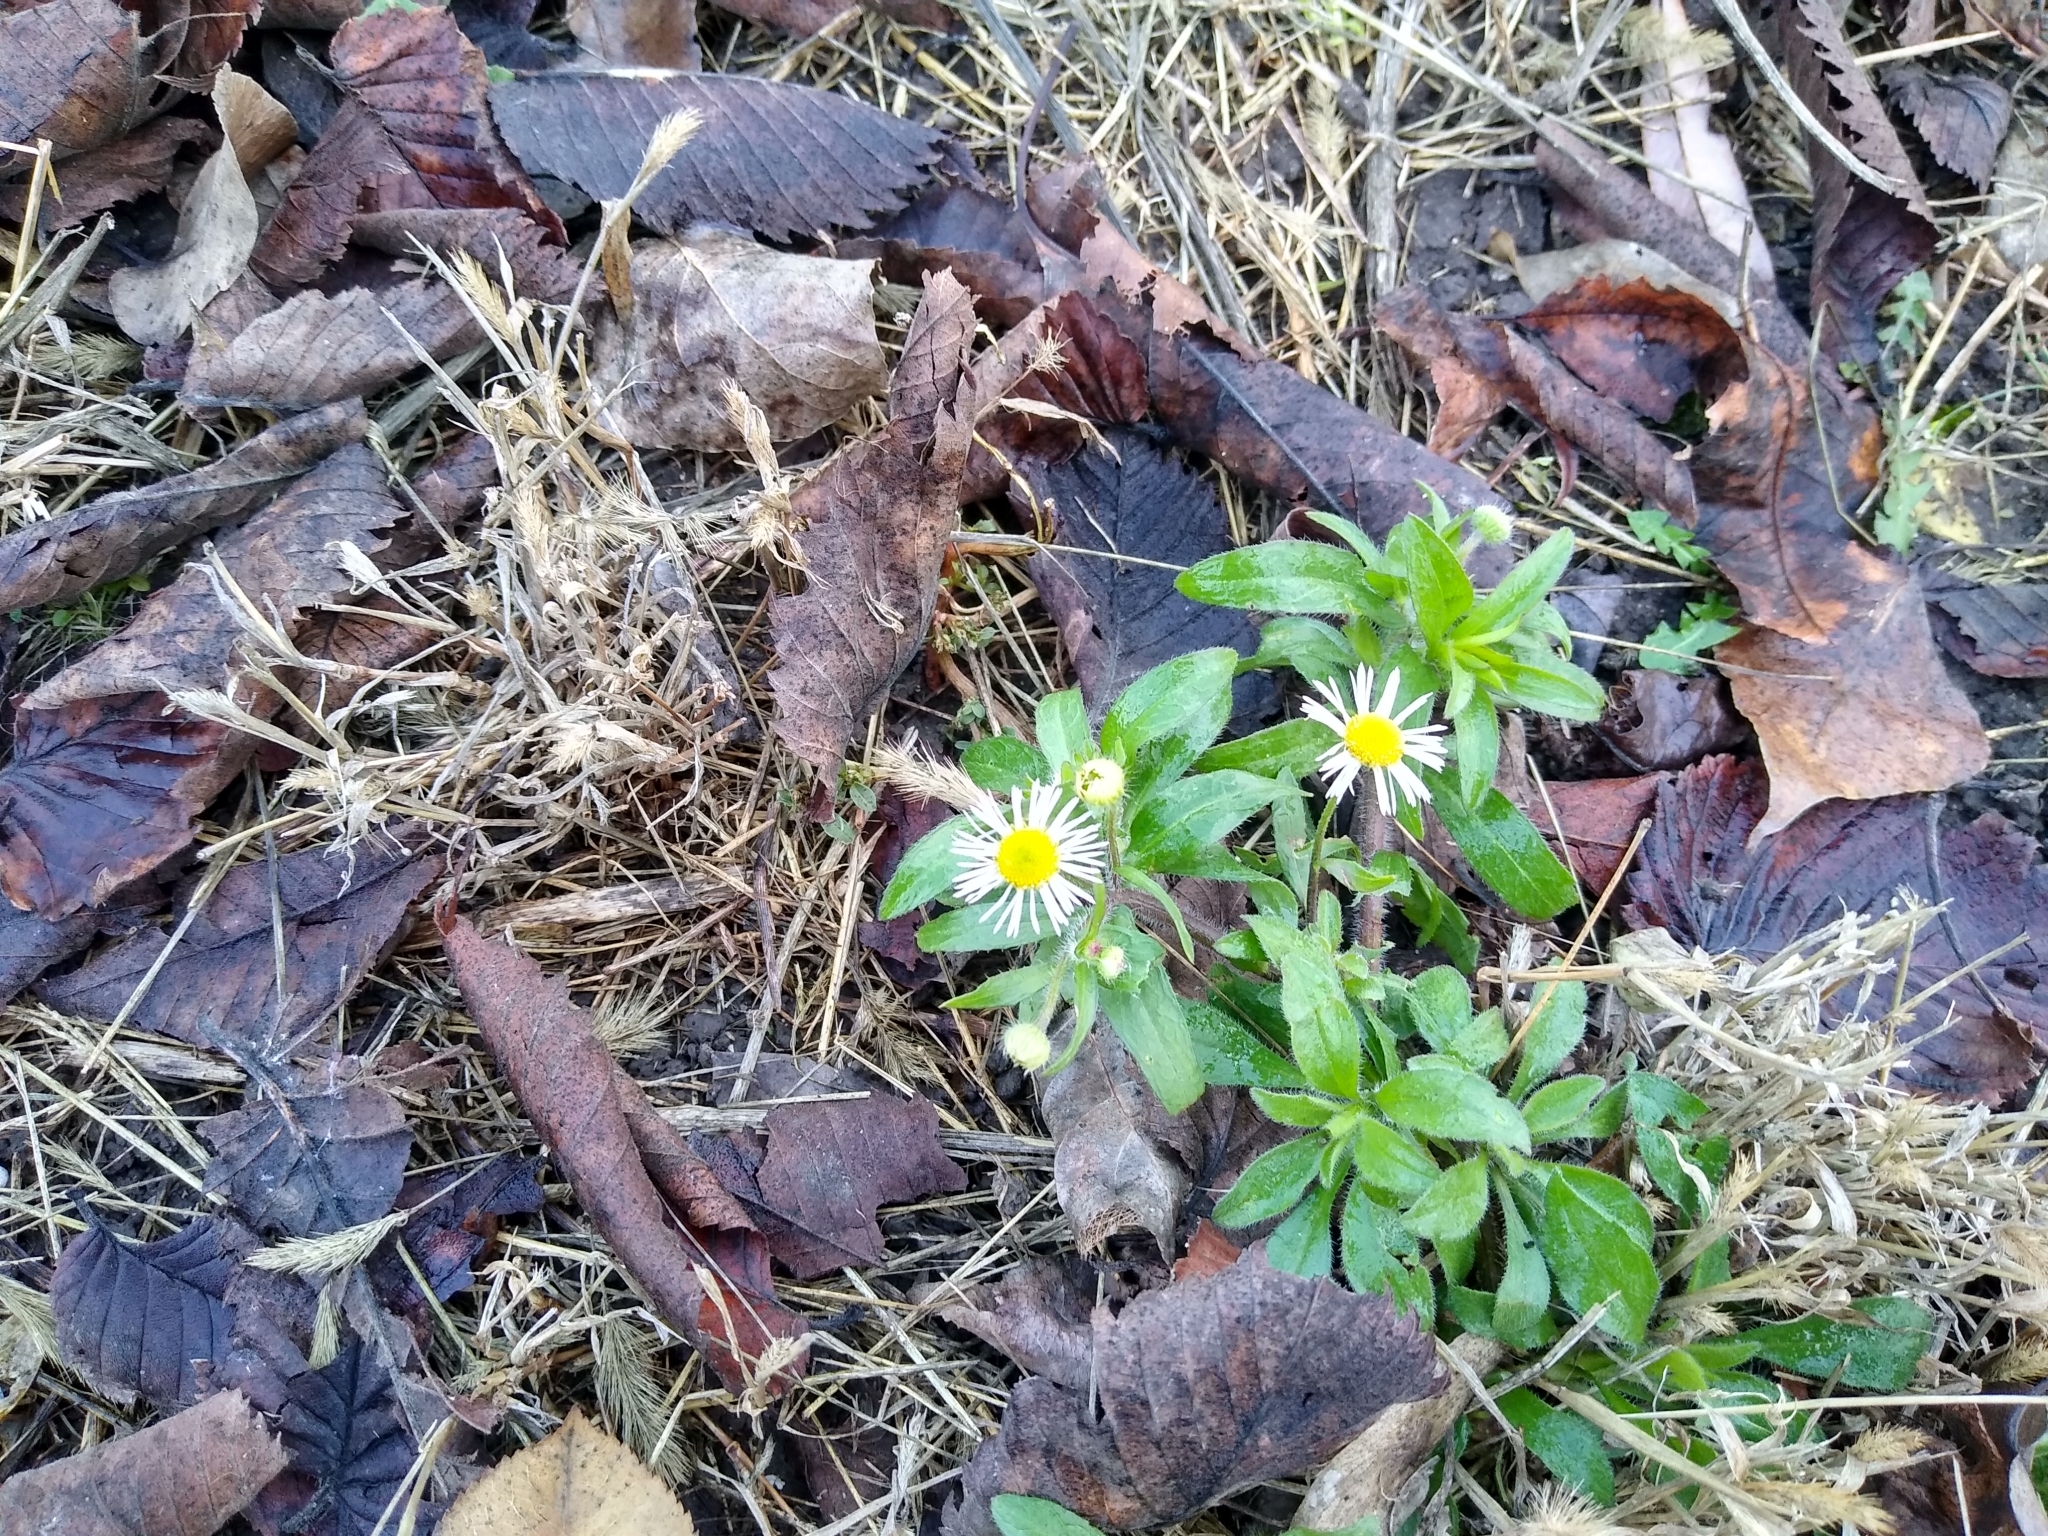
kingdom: Plantae
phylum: Tracheophyta
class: Magnoliopsida
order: Asterales
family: Asteraceae
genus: Erigeron
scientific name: Erigeron annuus
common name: Tall fleabane
